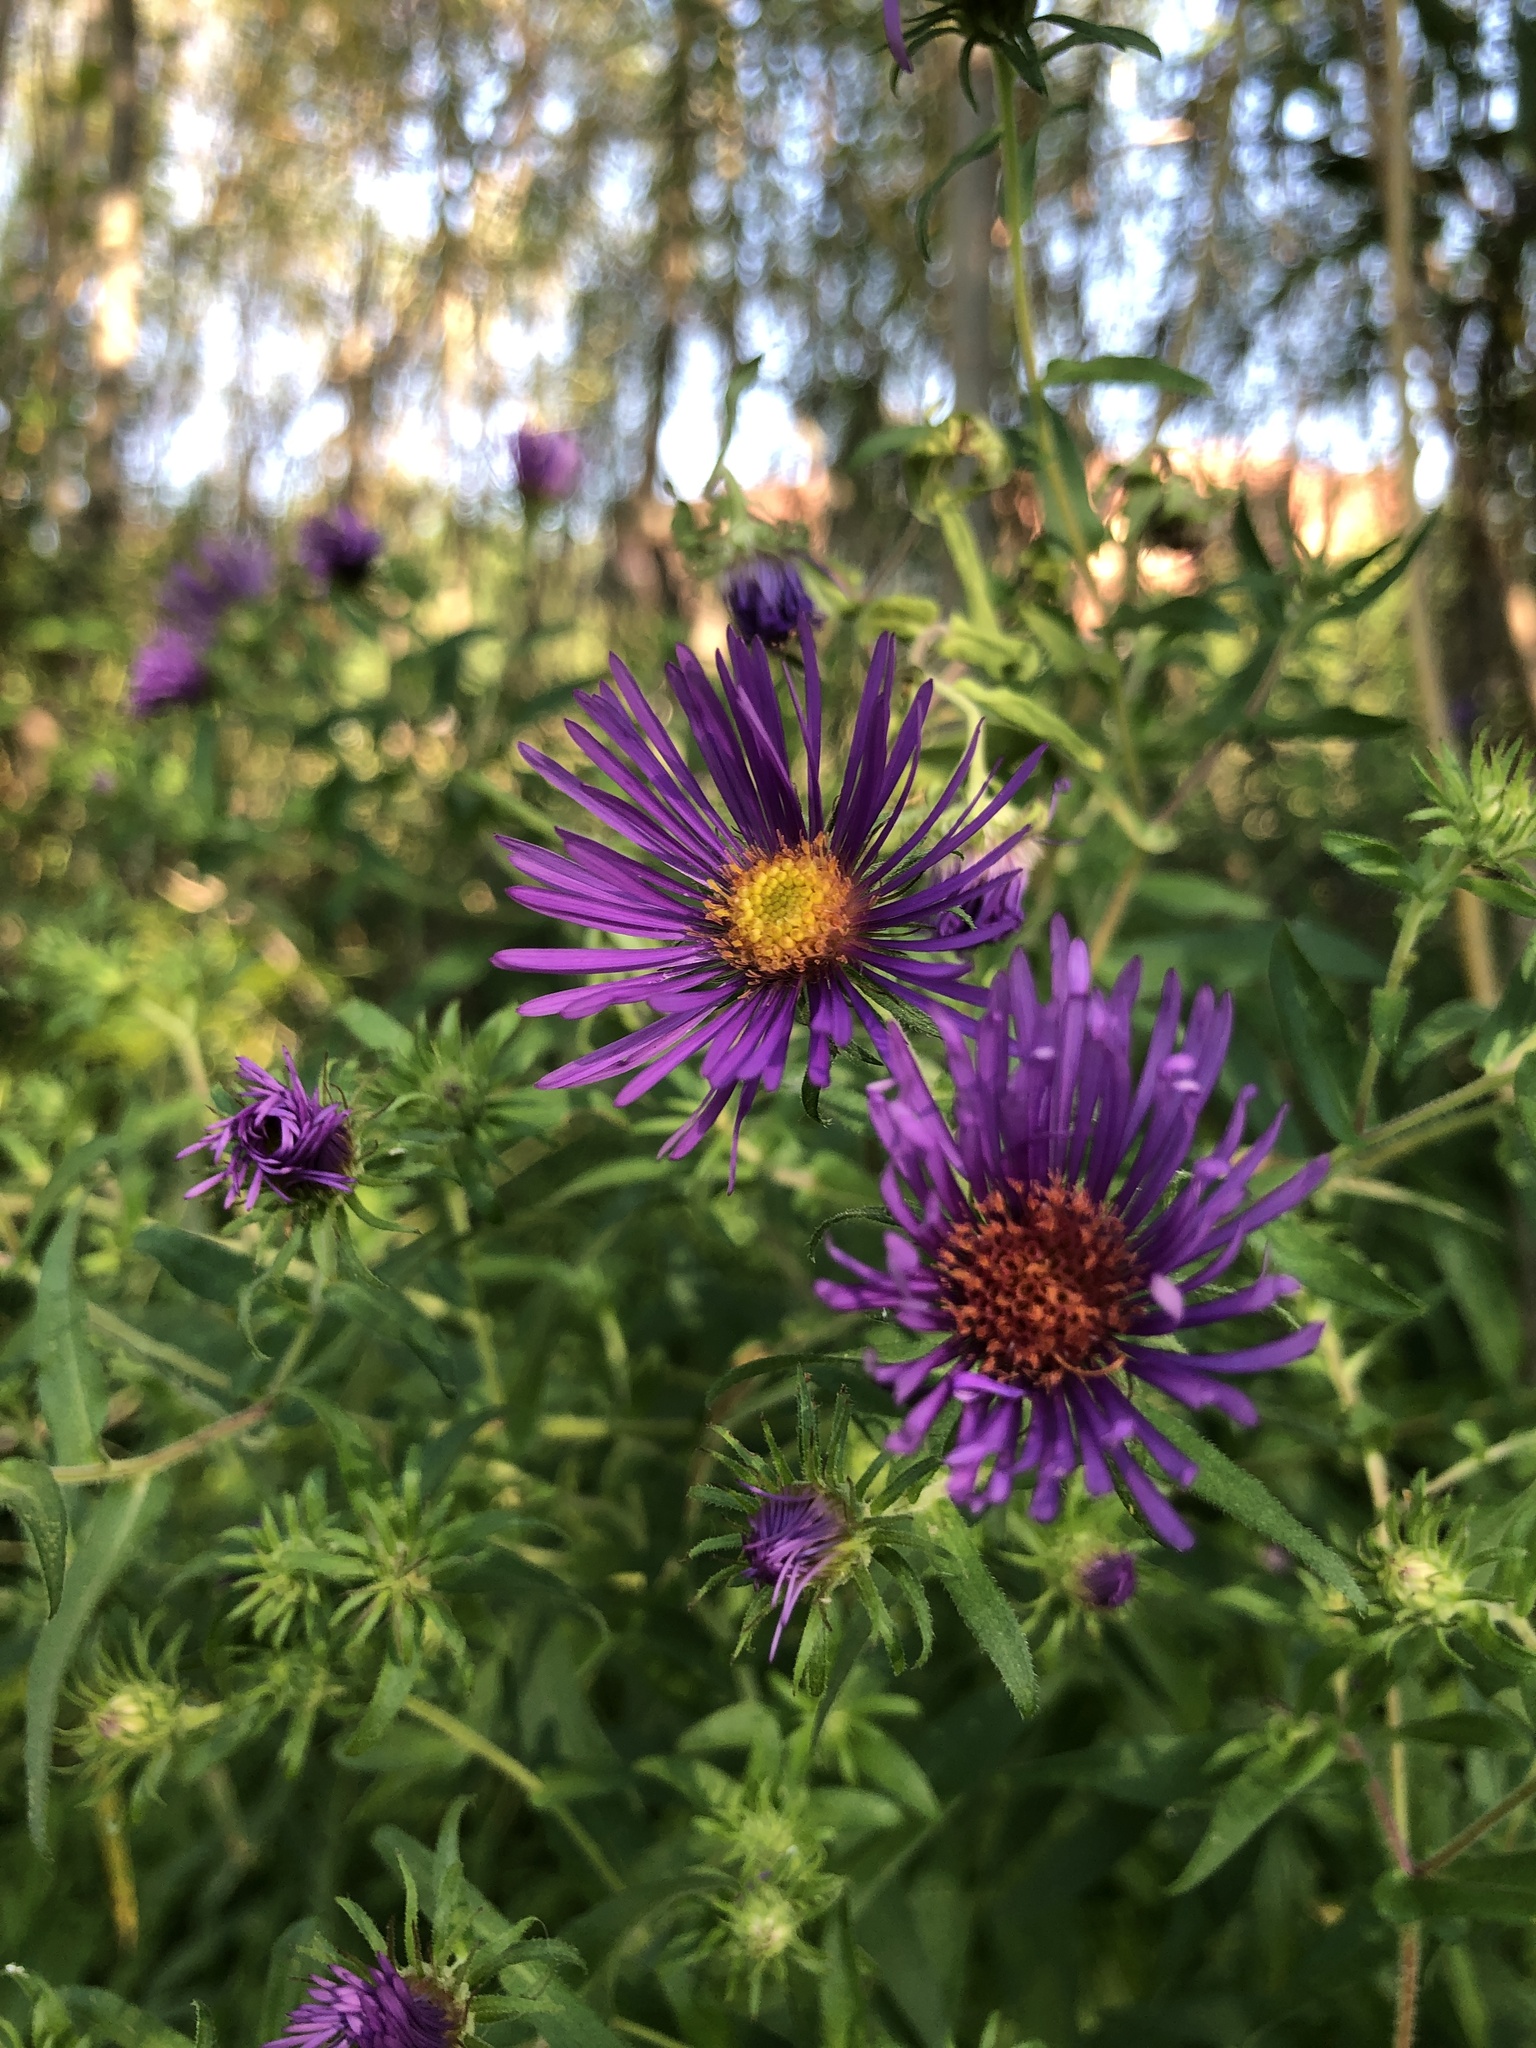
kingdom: Plantae
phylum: Tracheophyta
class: Magnoliopsida
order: Asterales
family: Asteraceae
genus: Symphyotrichum
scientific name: Symphyotrichum novae-angliae
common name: Michaelmas daisy
